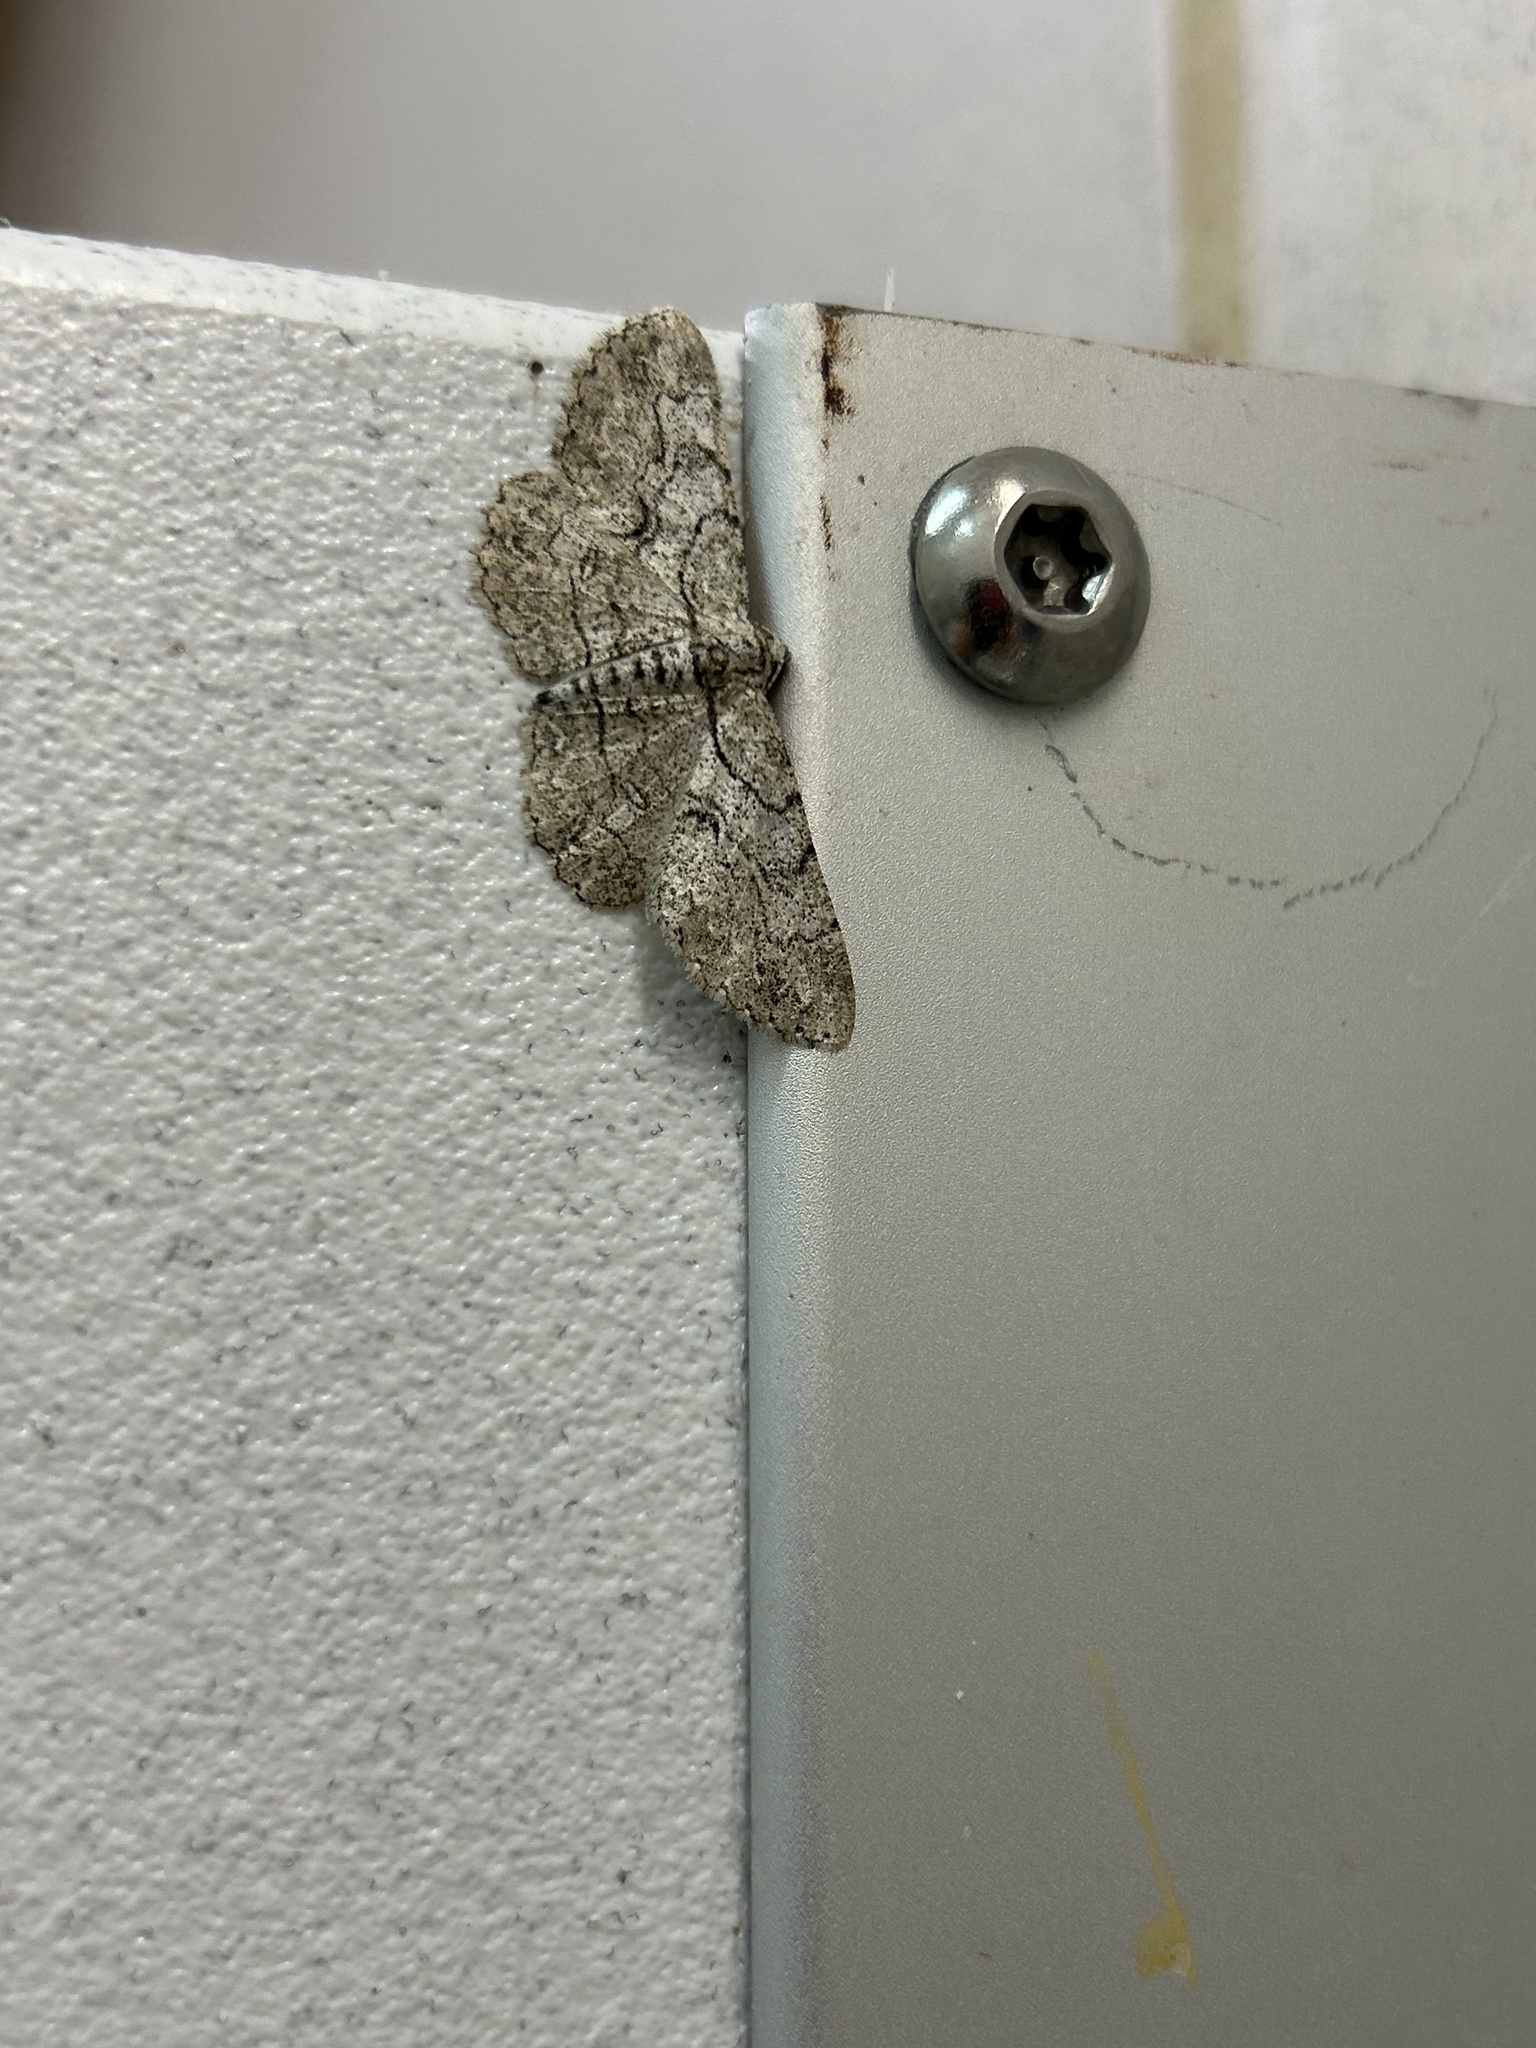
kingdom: Animalia
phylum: Arthropoda
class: Insecta
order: Lepidoptera
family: Geometridae
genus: Iridopsis
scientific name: Iridopsis defectaria
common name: Brown-shaded gray
